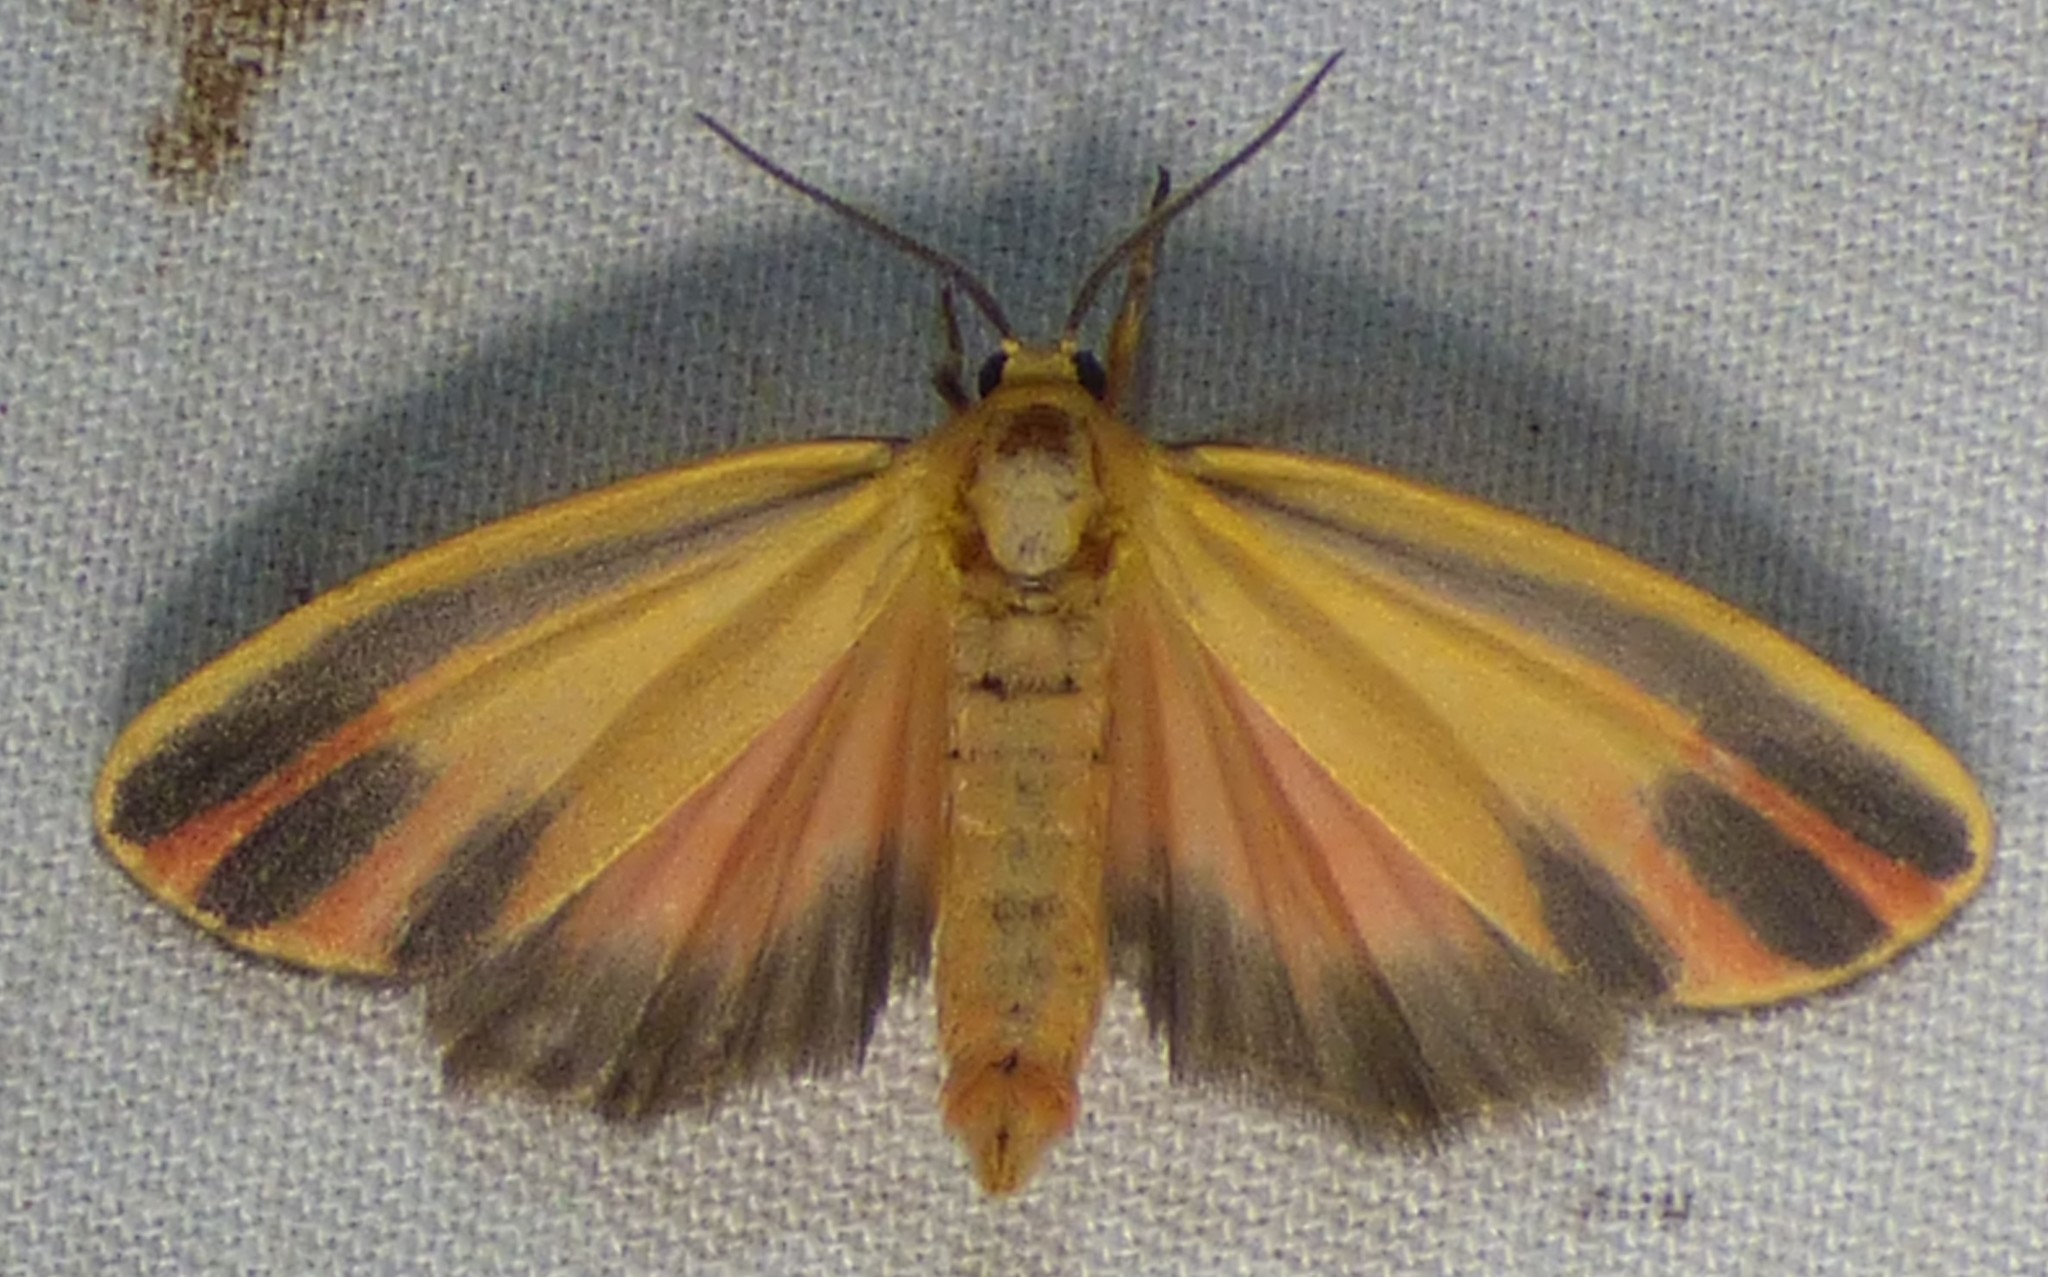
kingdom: Animalia
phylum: Arthropoda
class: Insecta
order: Lepidoptera
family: Erebidae
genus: Hypoprepia
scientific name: Hypoprepia fucosa
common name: Painted lichen moth
